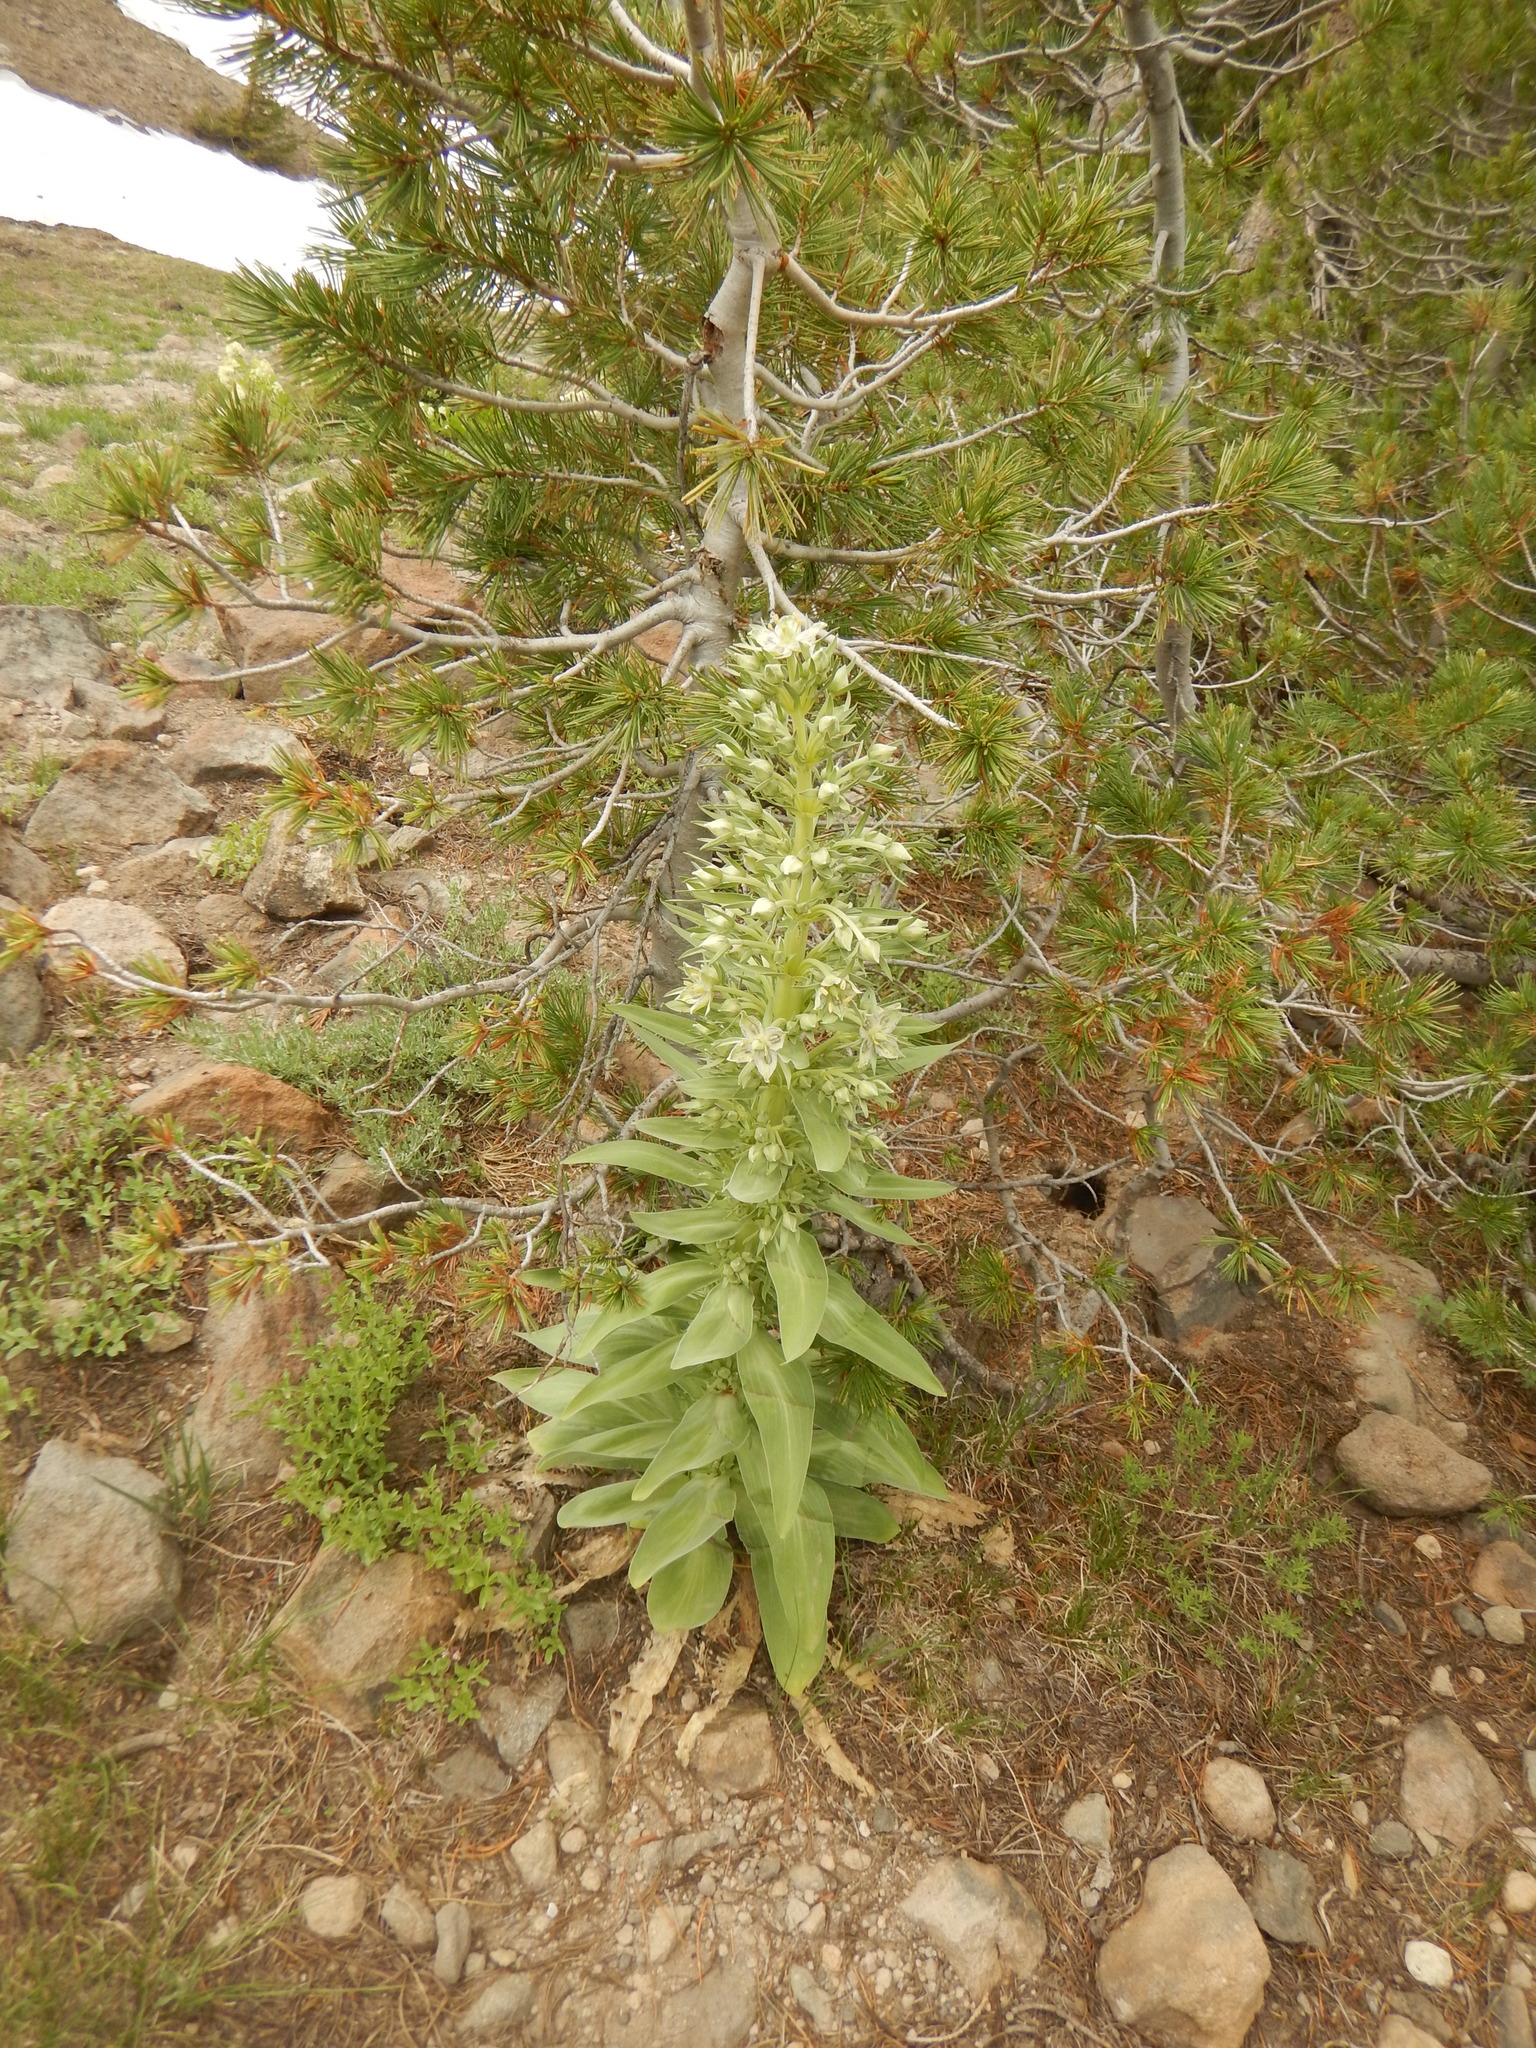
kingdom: Plantae
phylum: Tracheophyta
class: Magnoliopsida
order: Gentianales
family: Gentianaceae
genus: Frasera
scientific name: Frasera speciosa
